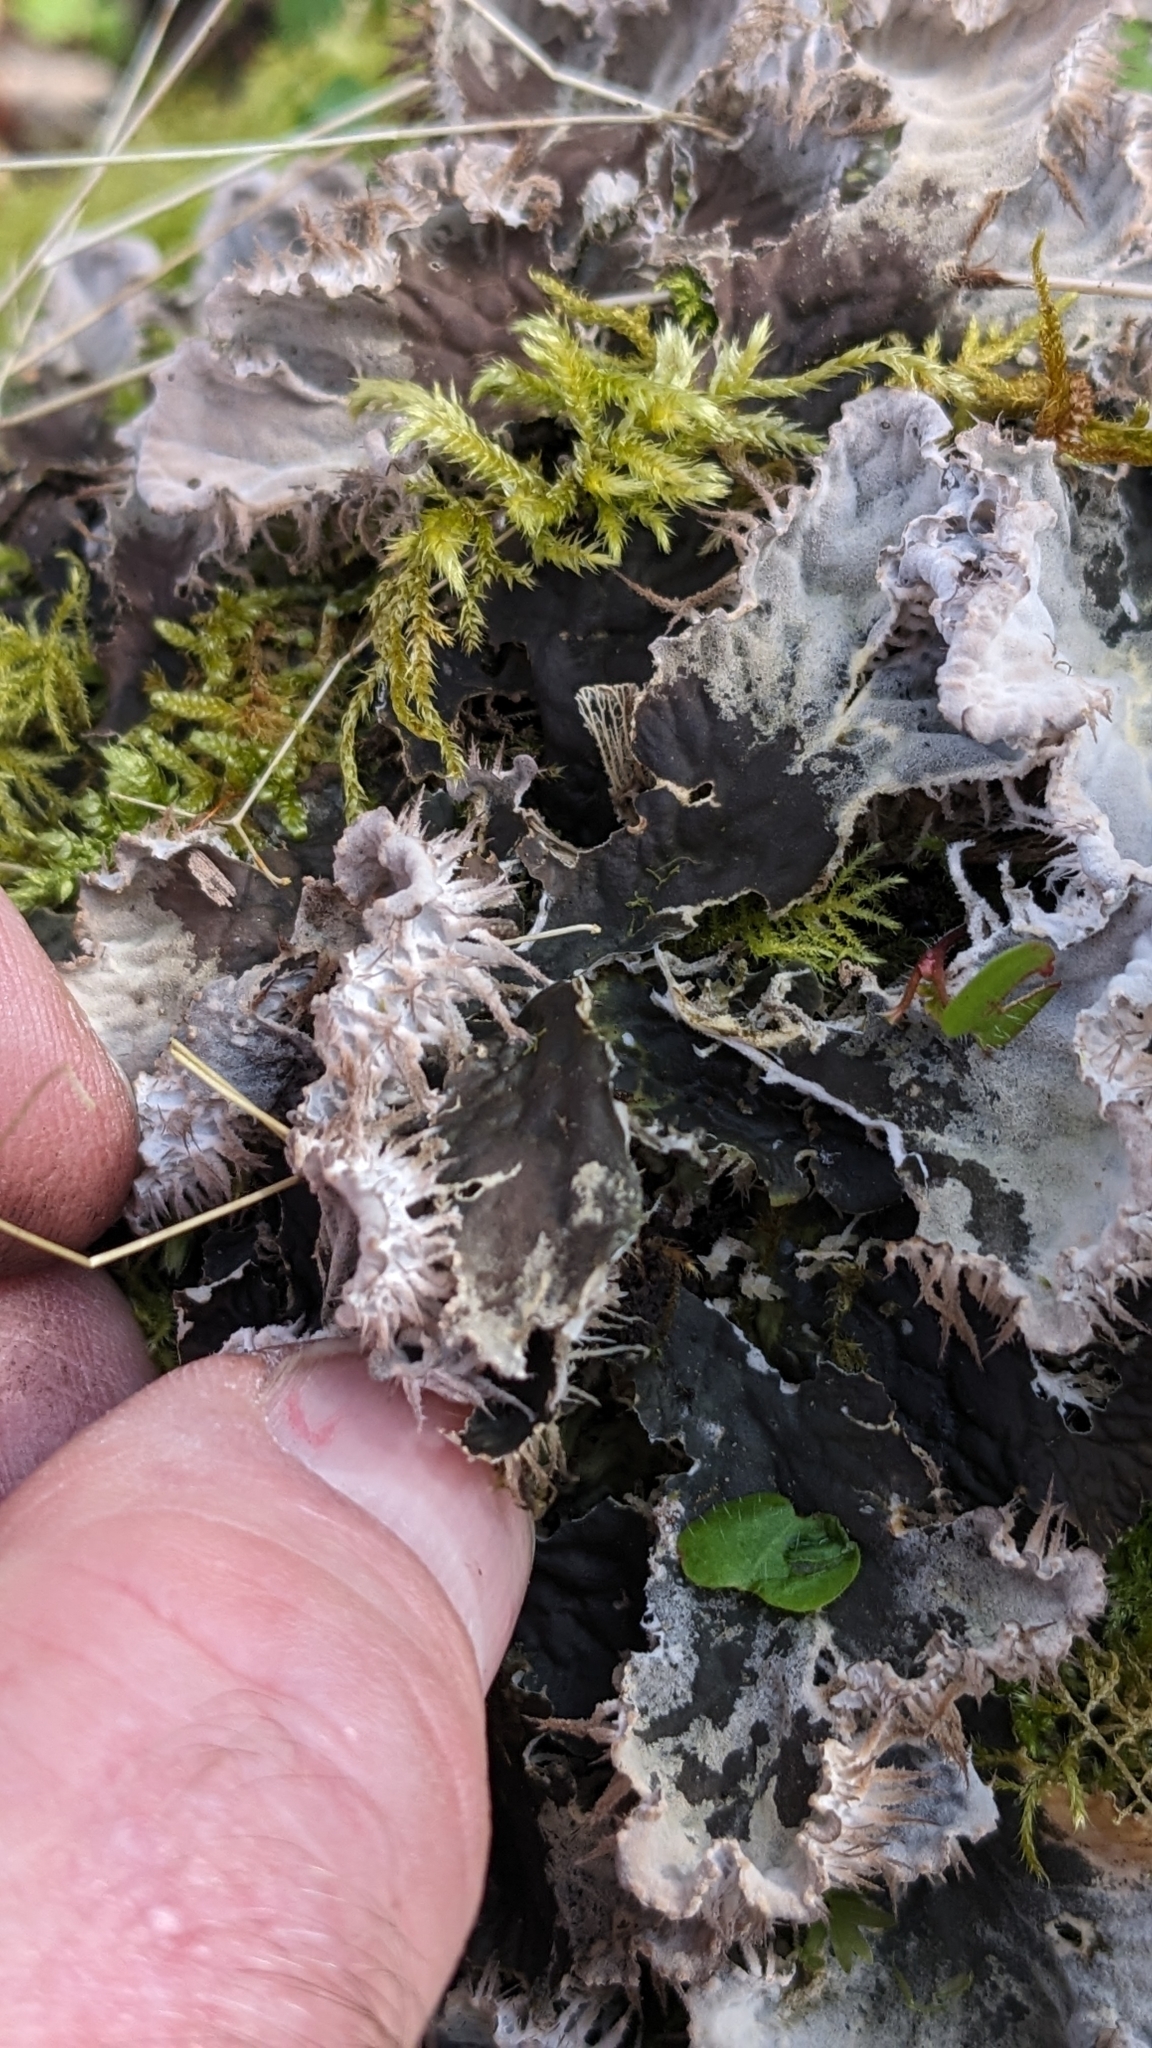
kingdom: Fungi
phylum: Ascomycota
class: Lecanoromycetes
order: Peltigerales
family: Peltigeraceae
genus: Peltigera
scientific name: Peltigera membranacea
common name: Membranous pelt lichen
